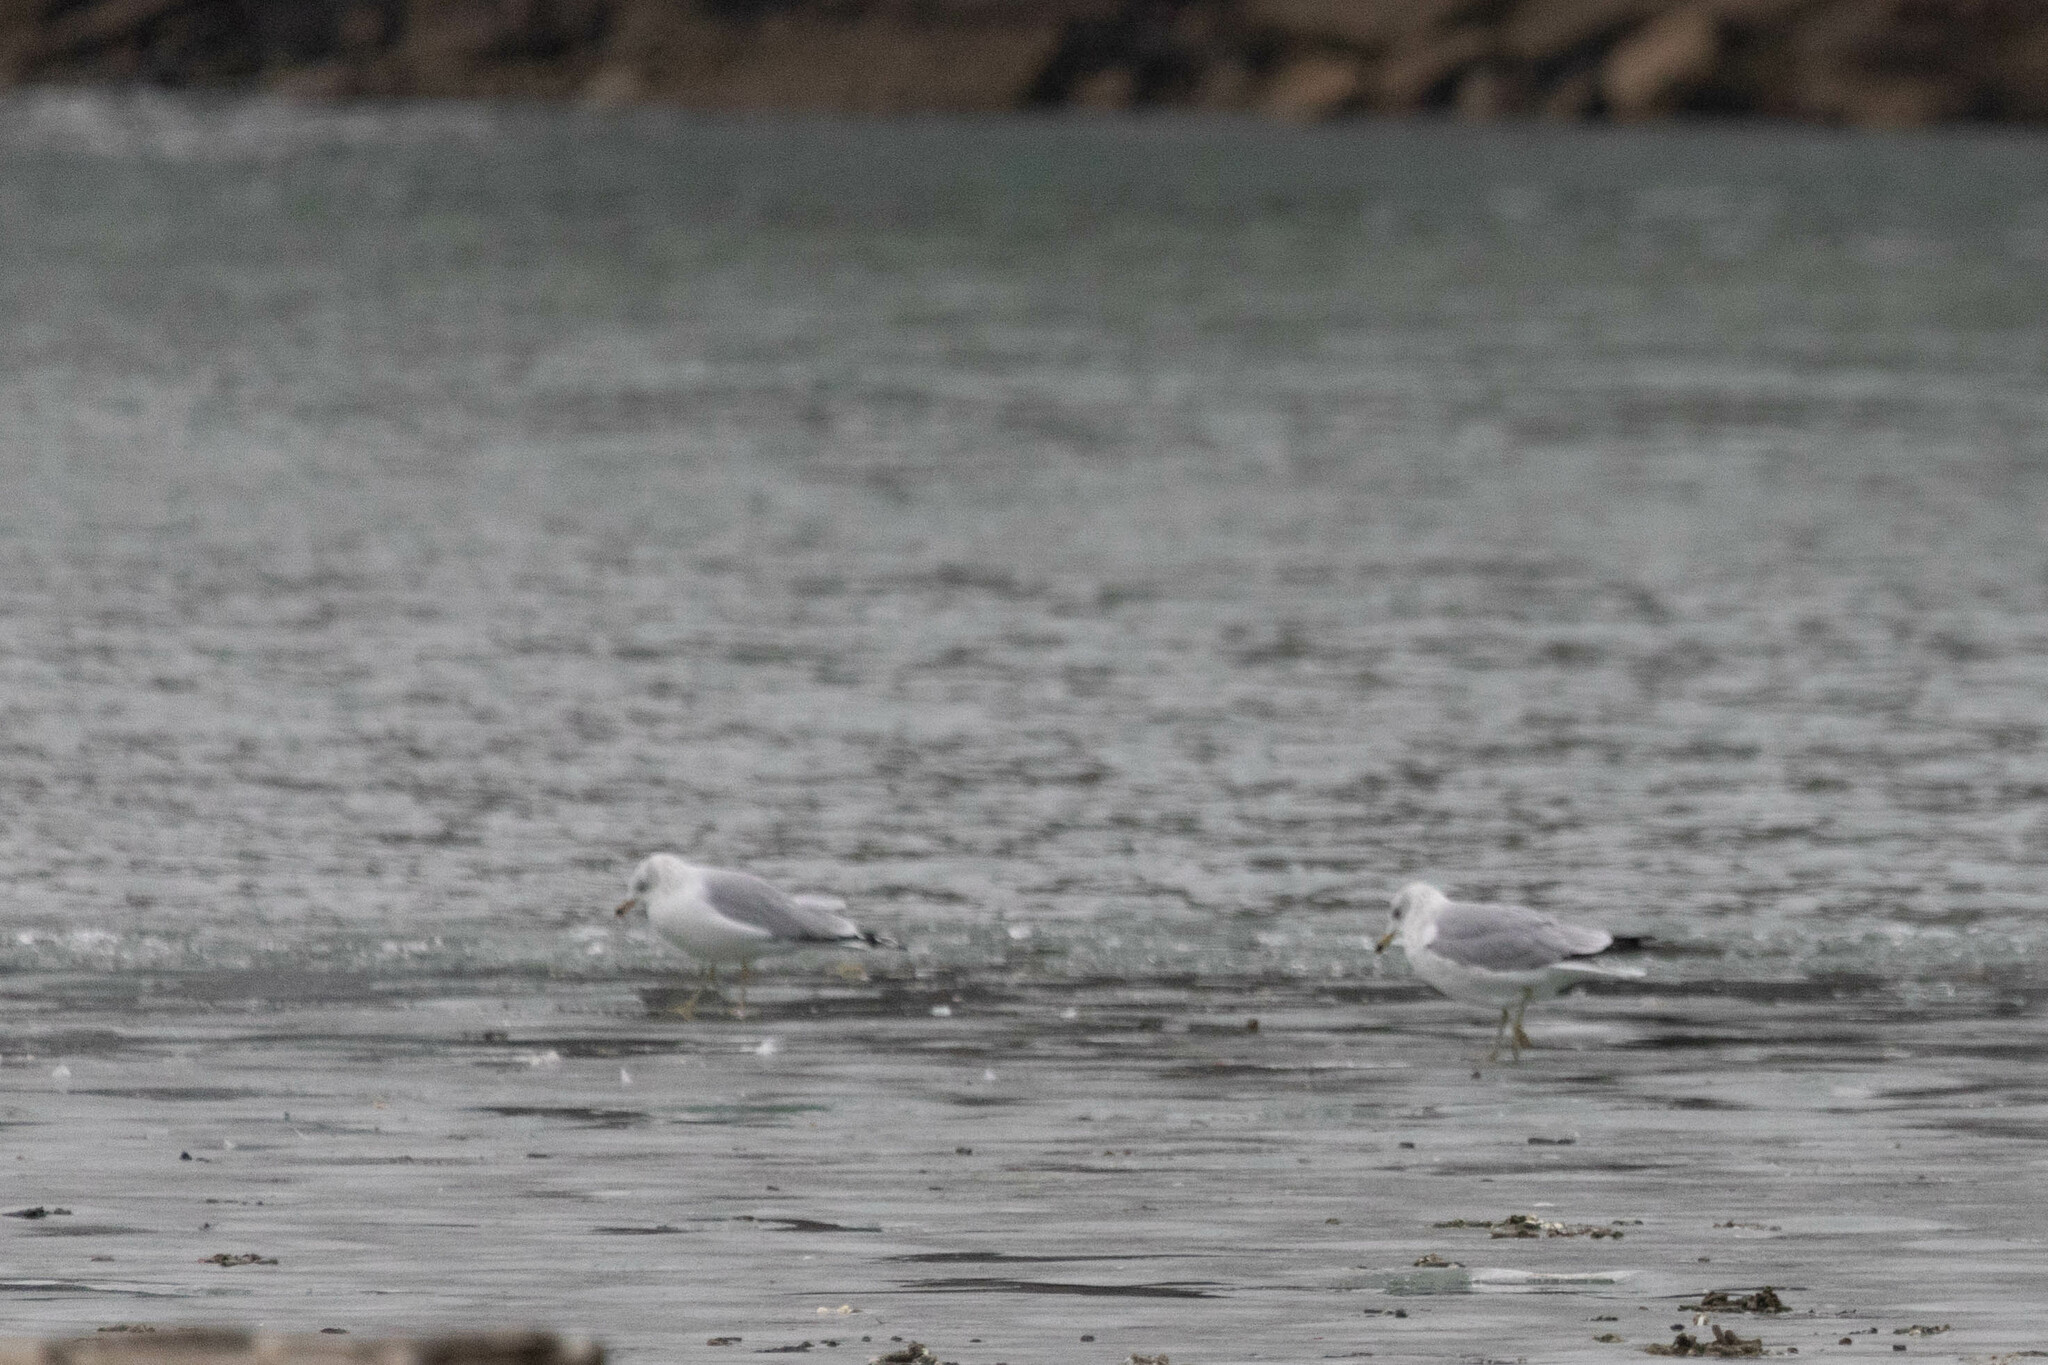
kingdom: Animalia
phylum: Chordata
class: Aves
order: Charadriiformes
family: Laridae
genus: Larus
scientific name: Larus delawarensis
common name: Ring-billed gull
